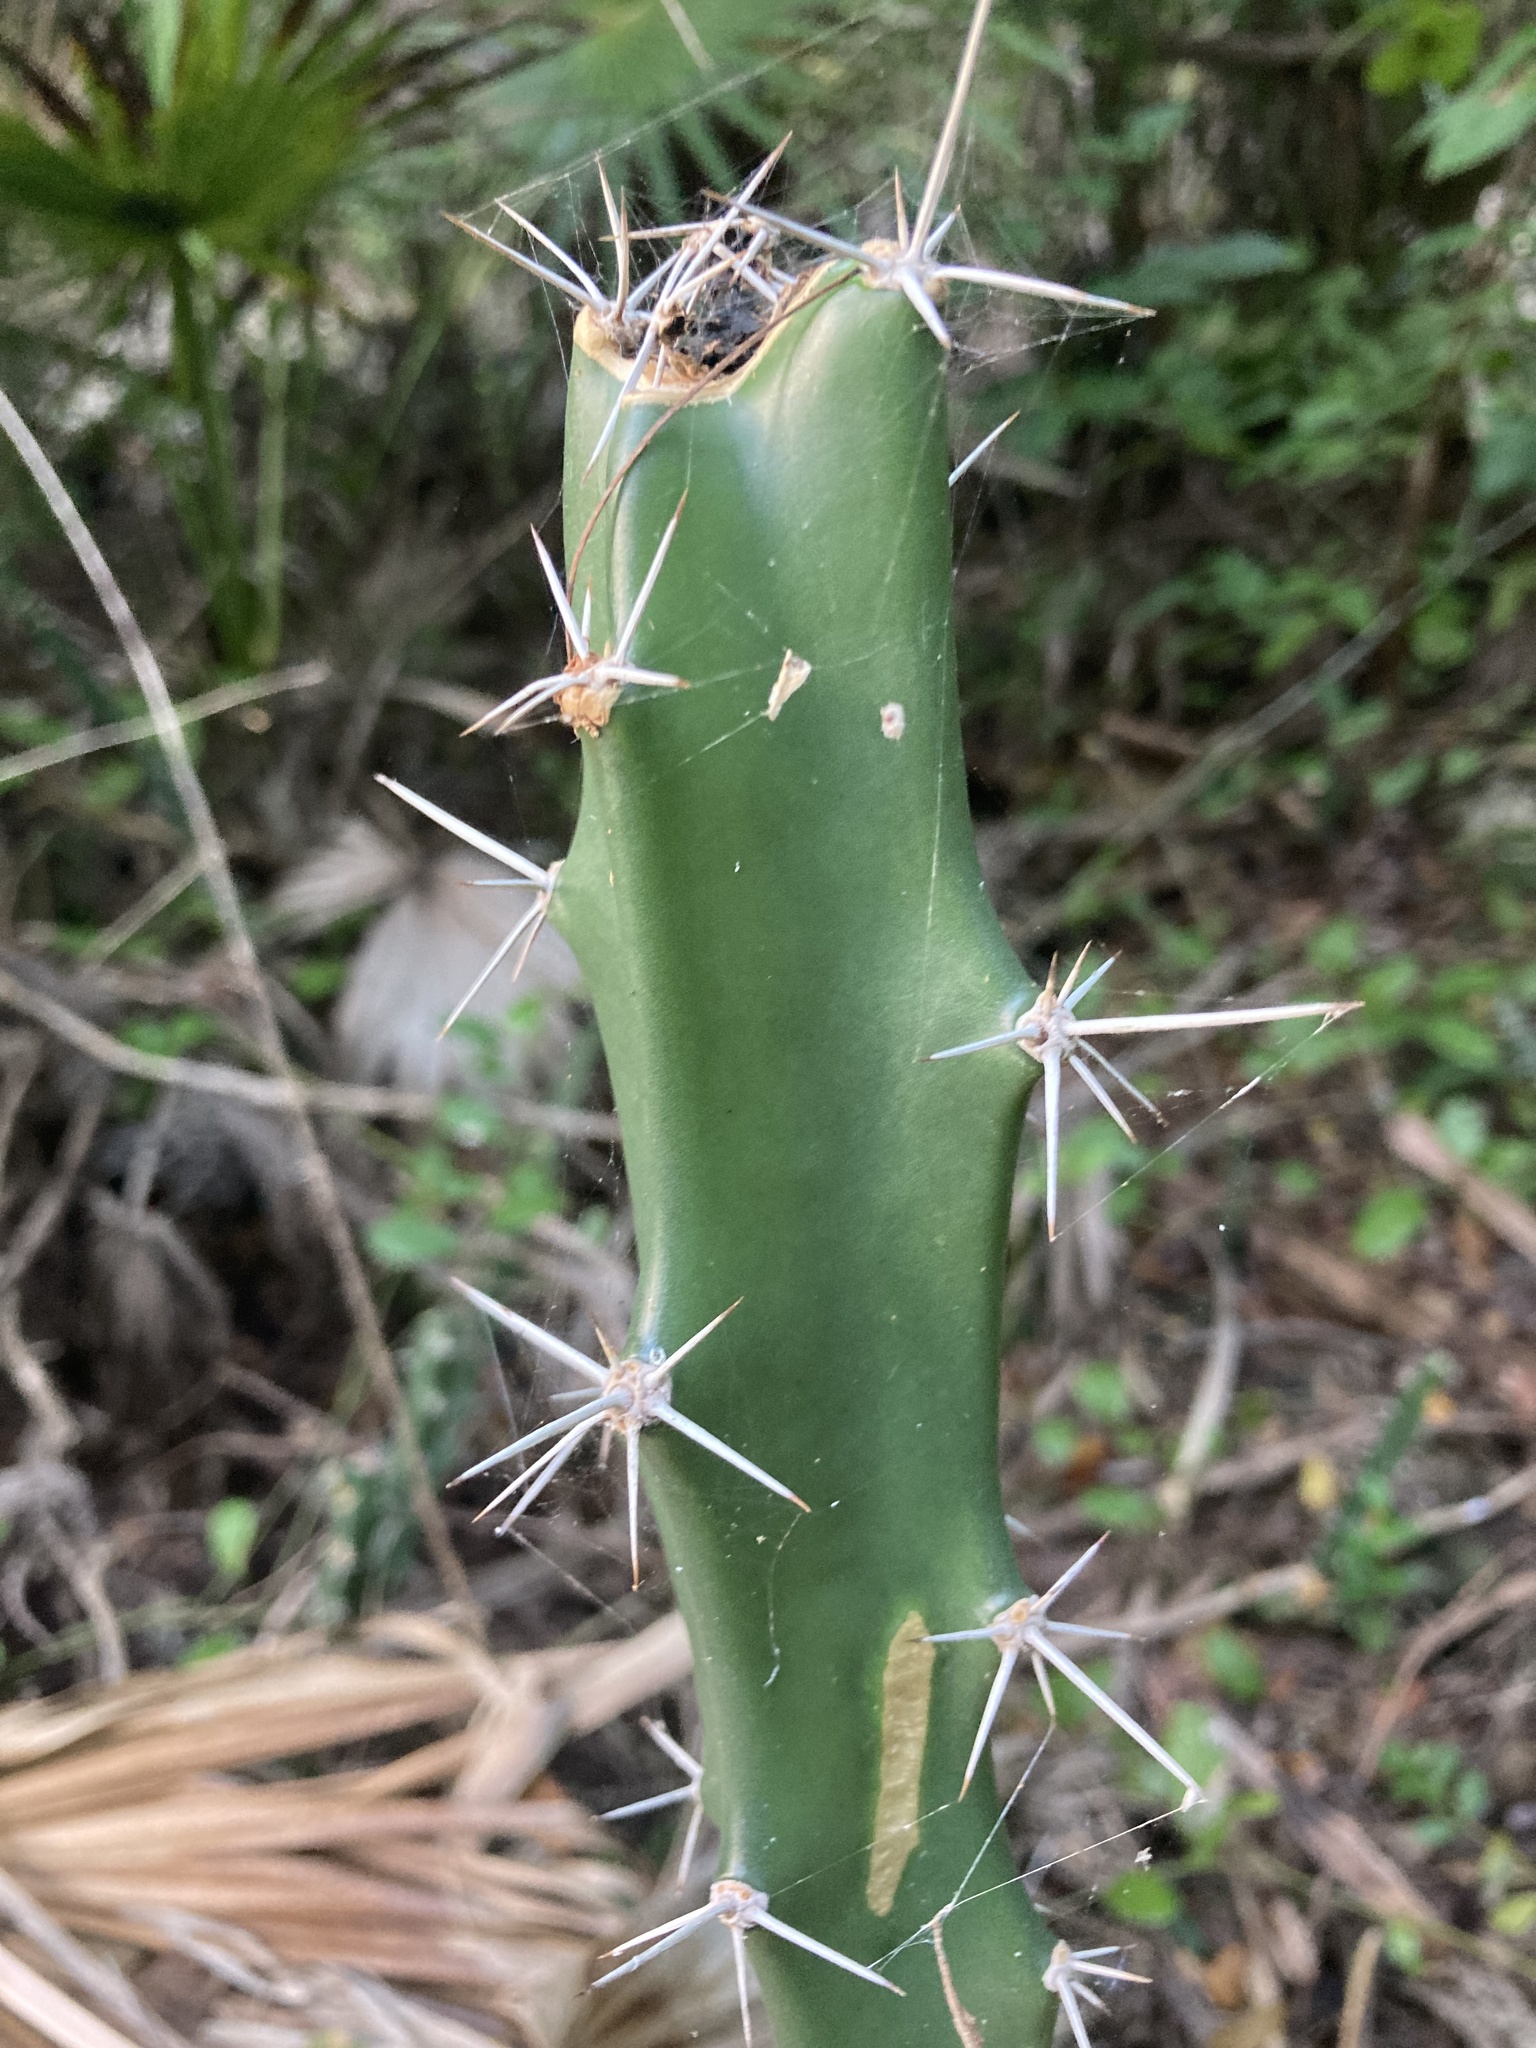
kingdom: Plantae
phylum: Tracheophyta
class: Magnoliopsida
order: Caryophyllales
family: Cactaceae
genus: Acanthocereus
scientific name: Acanthocereus tetragonus
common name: Triangle cactus
